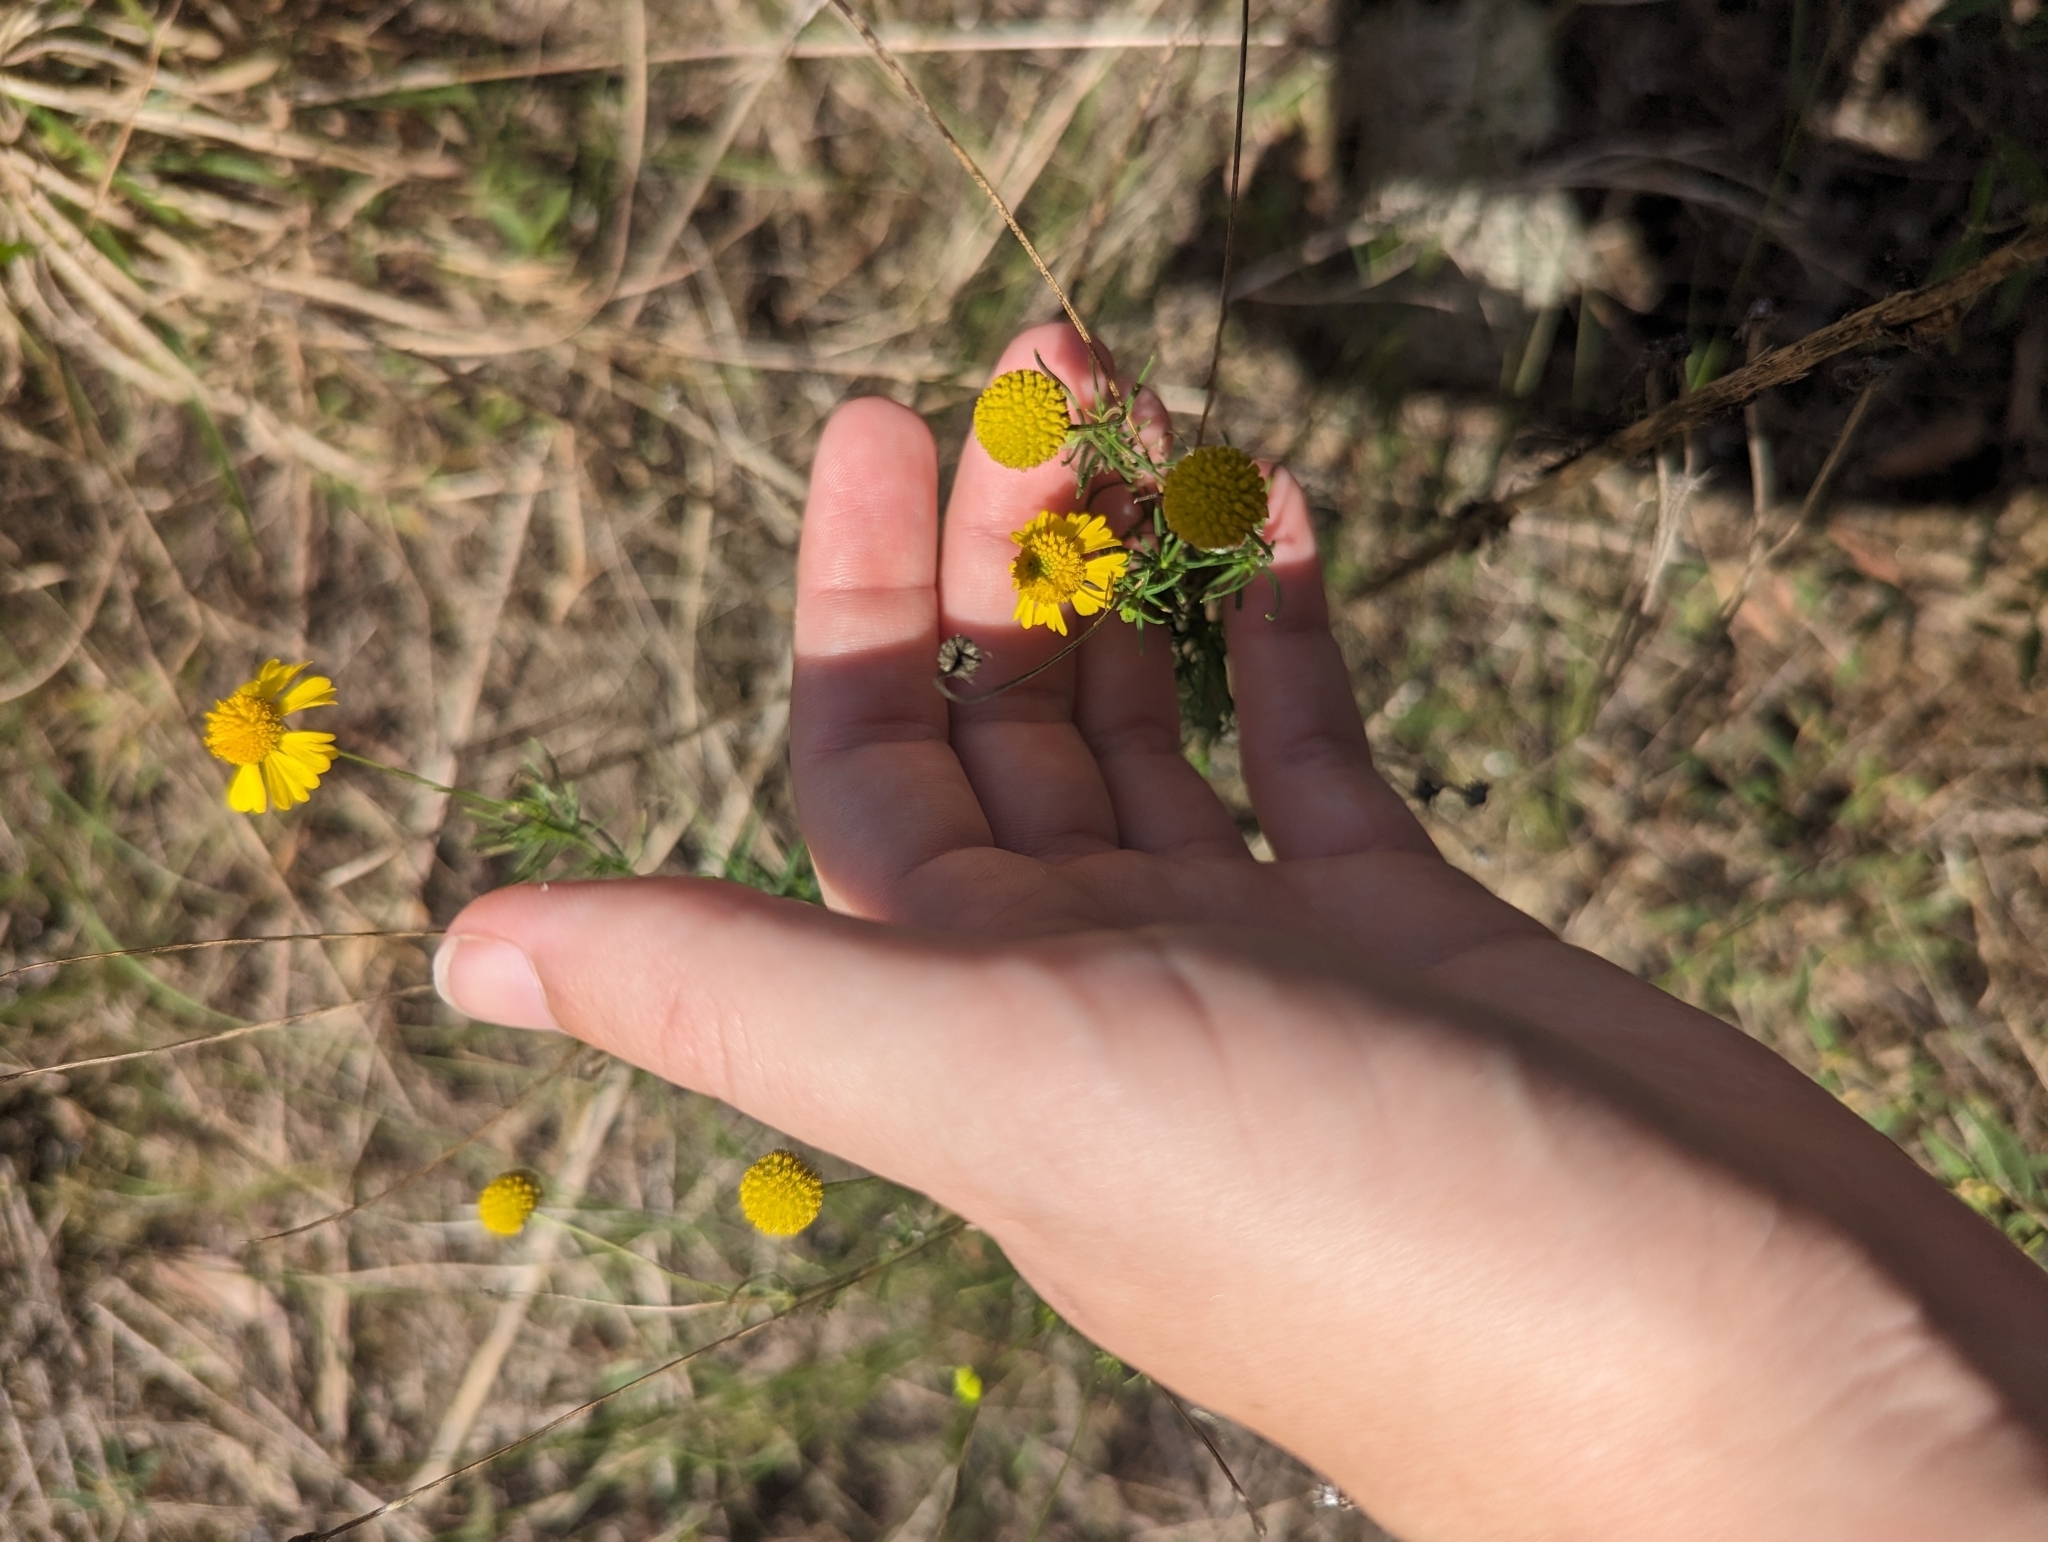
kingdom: Plantae
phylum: Tracheophyta
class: Magnoliopsida
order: Asterales
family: Asteraceae
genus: Helenium
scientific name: Helenium amarum
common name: Bitter sneezeweed
